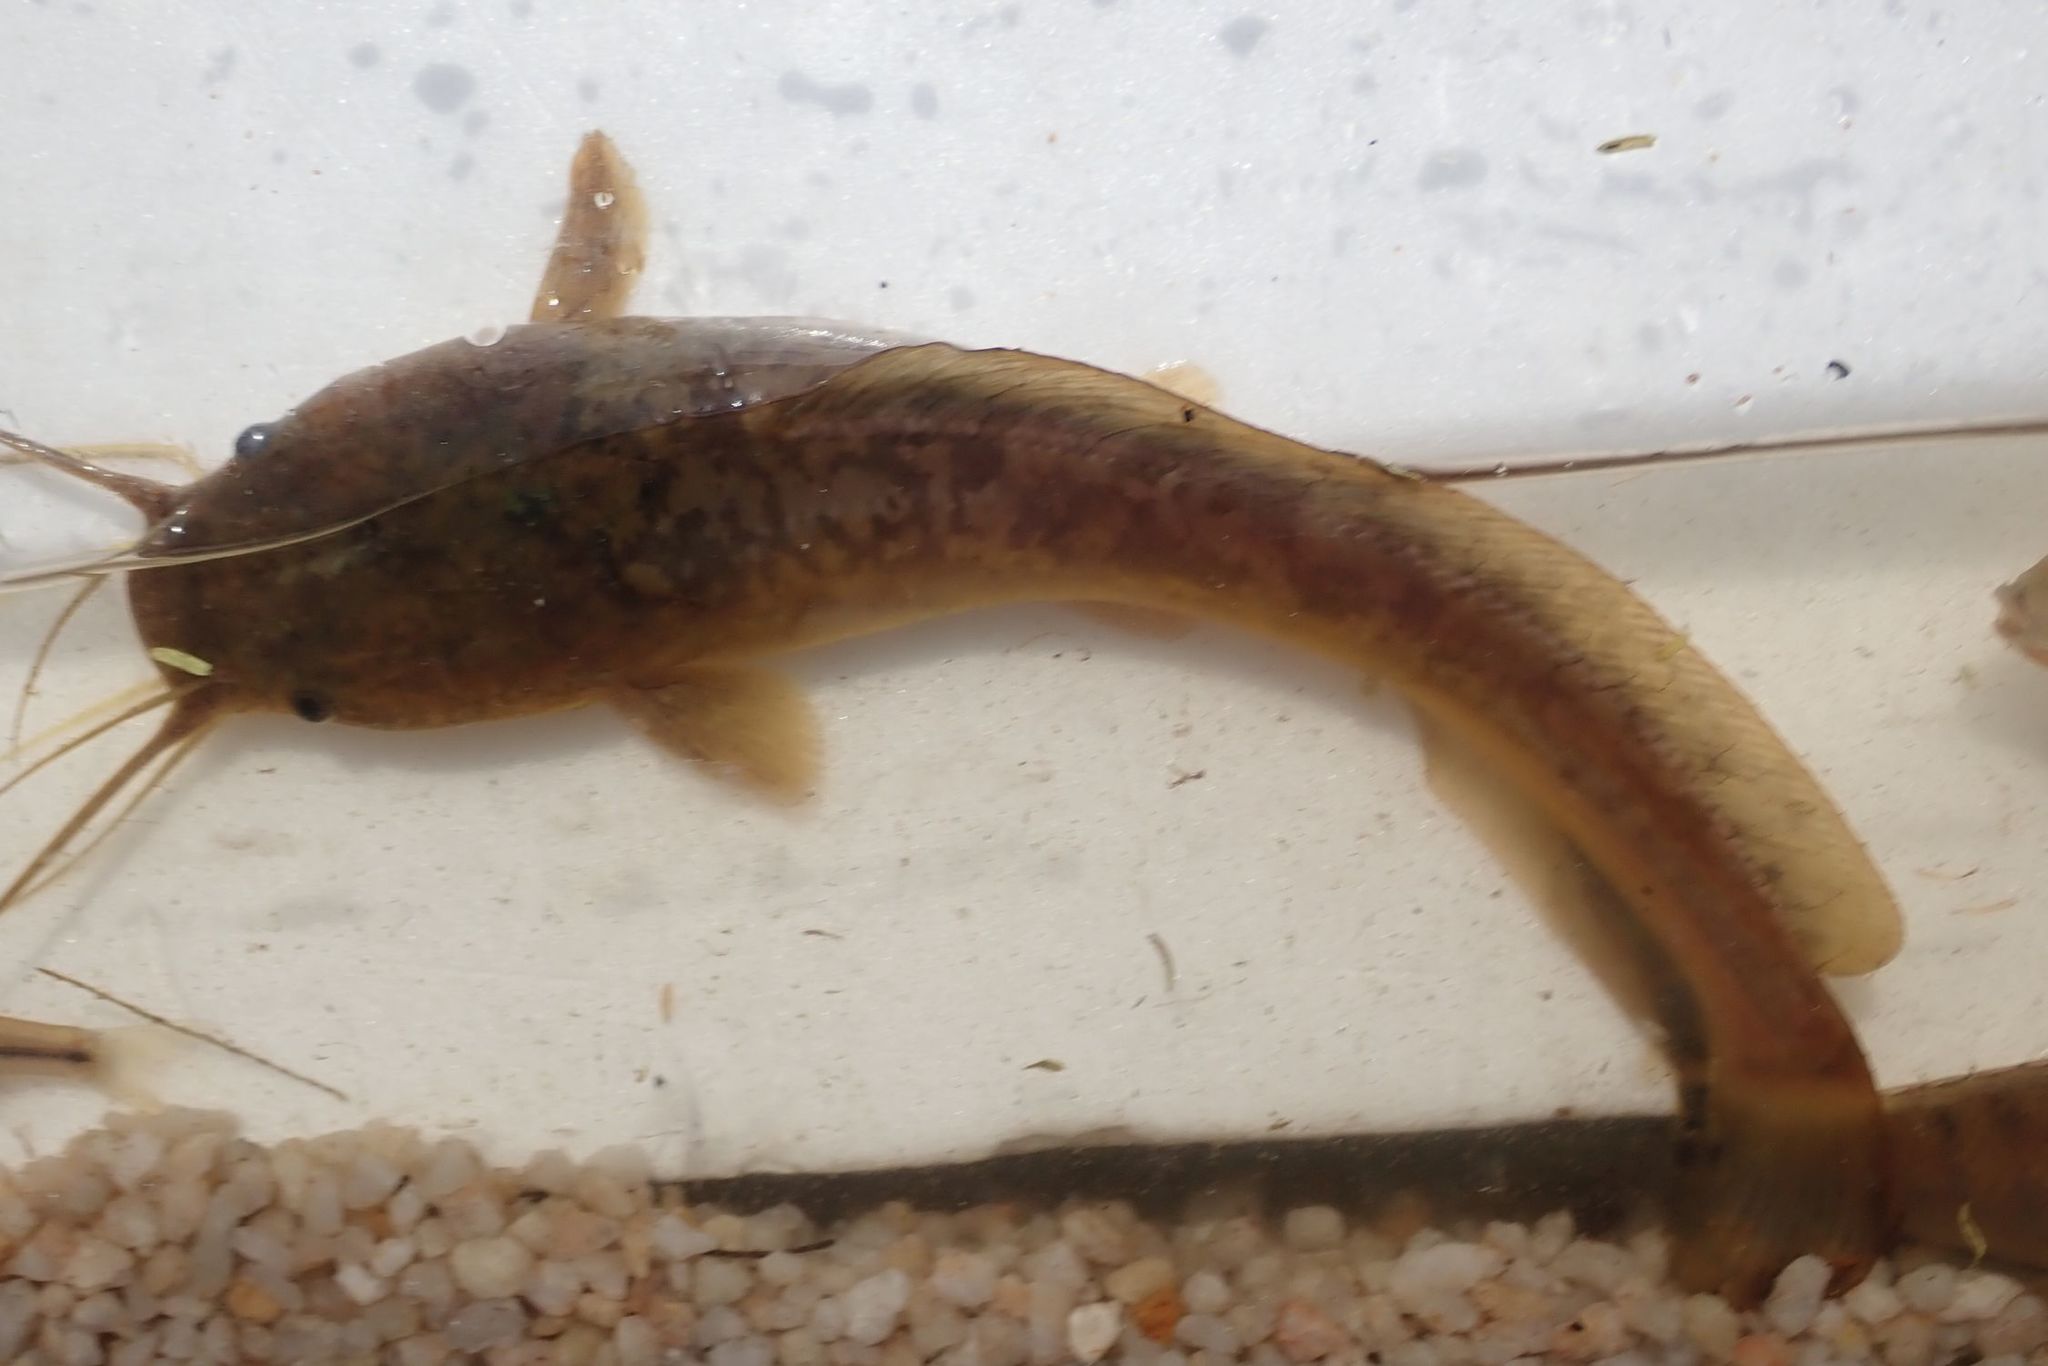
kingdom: Animalia
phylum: Chordata
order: Siluriformes
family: Clariidae
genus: Clarias
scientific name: Clarias gariepinus
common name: African catfish
